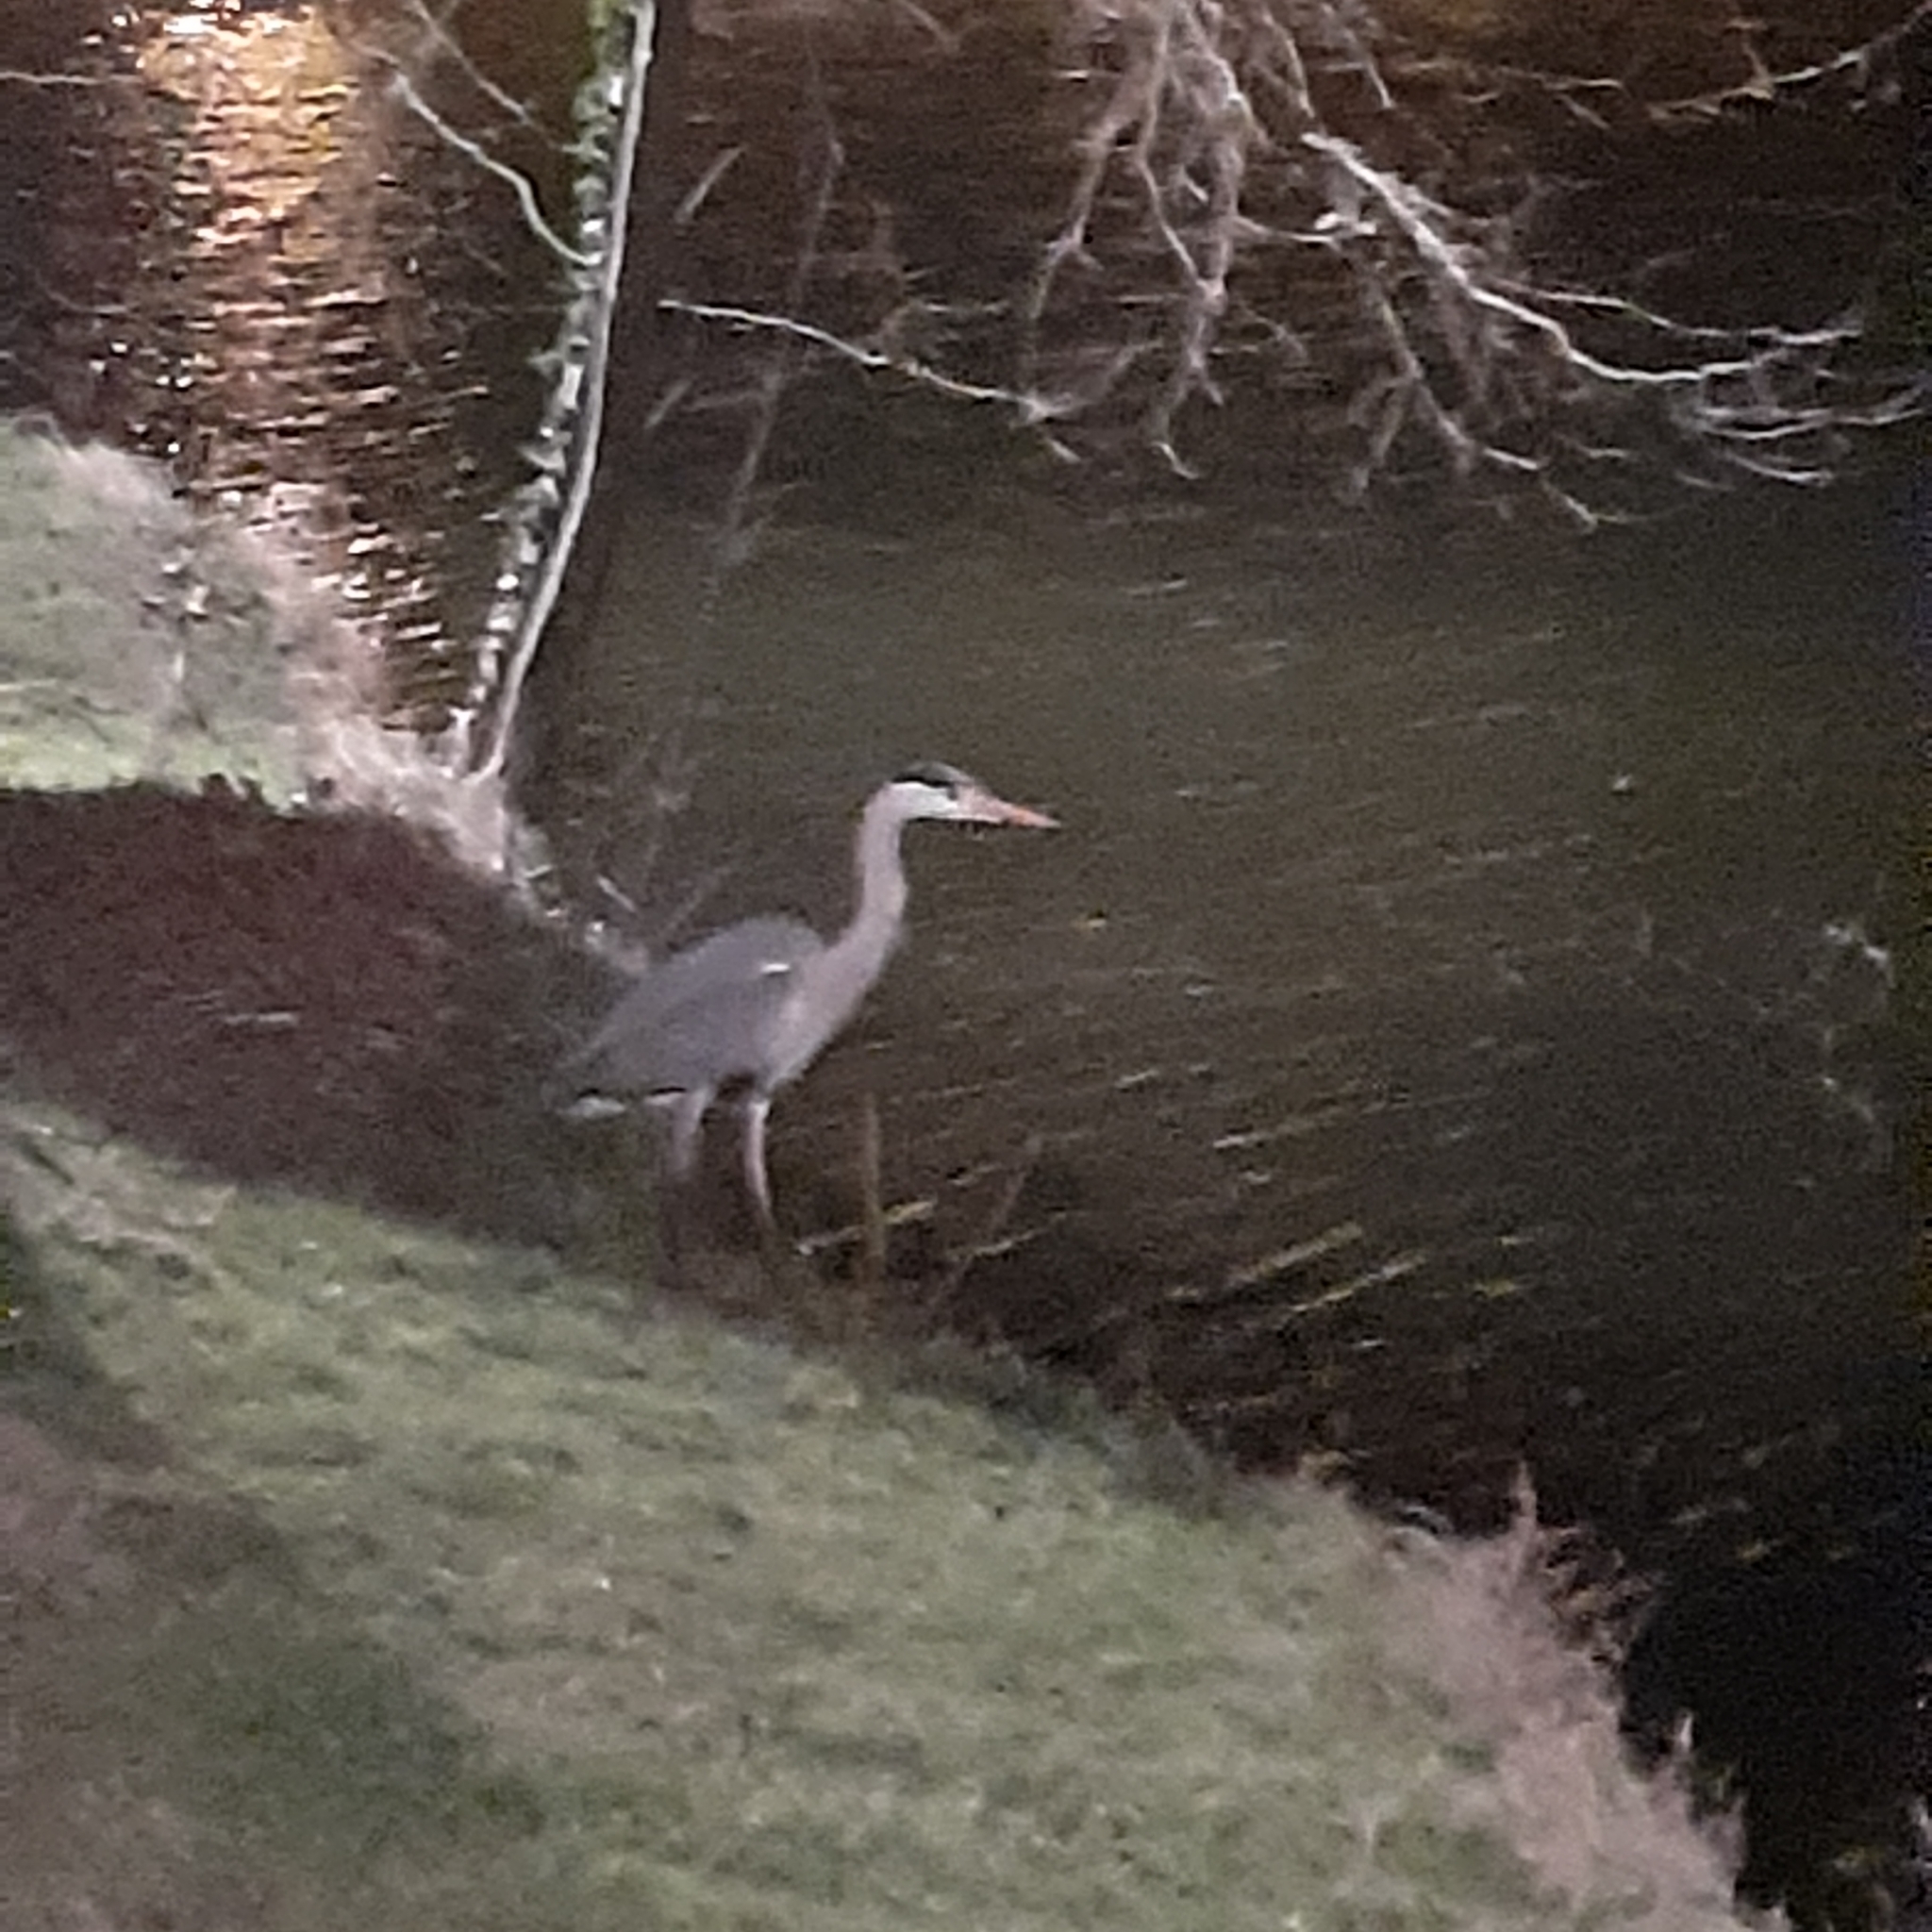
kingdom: Animalia
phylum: Chordata
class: Aves
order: Pelecaniformes
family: Ardeidae
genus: Ardea
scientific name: Ardea cinerea
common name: Grey heron
